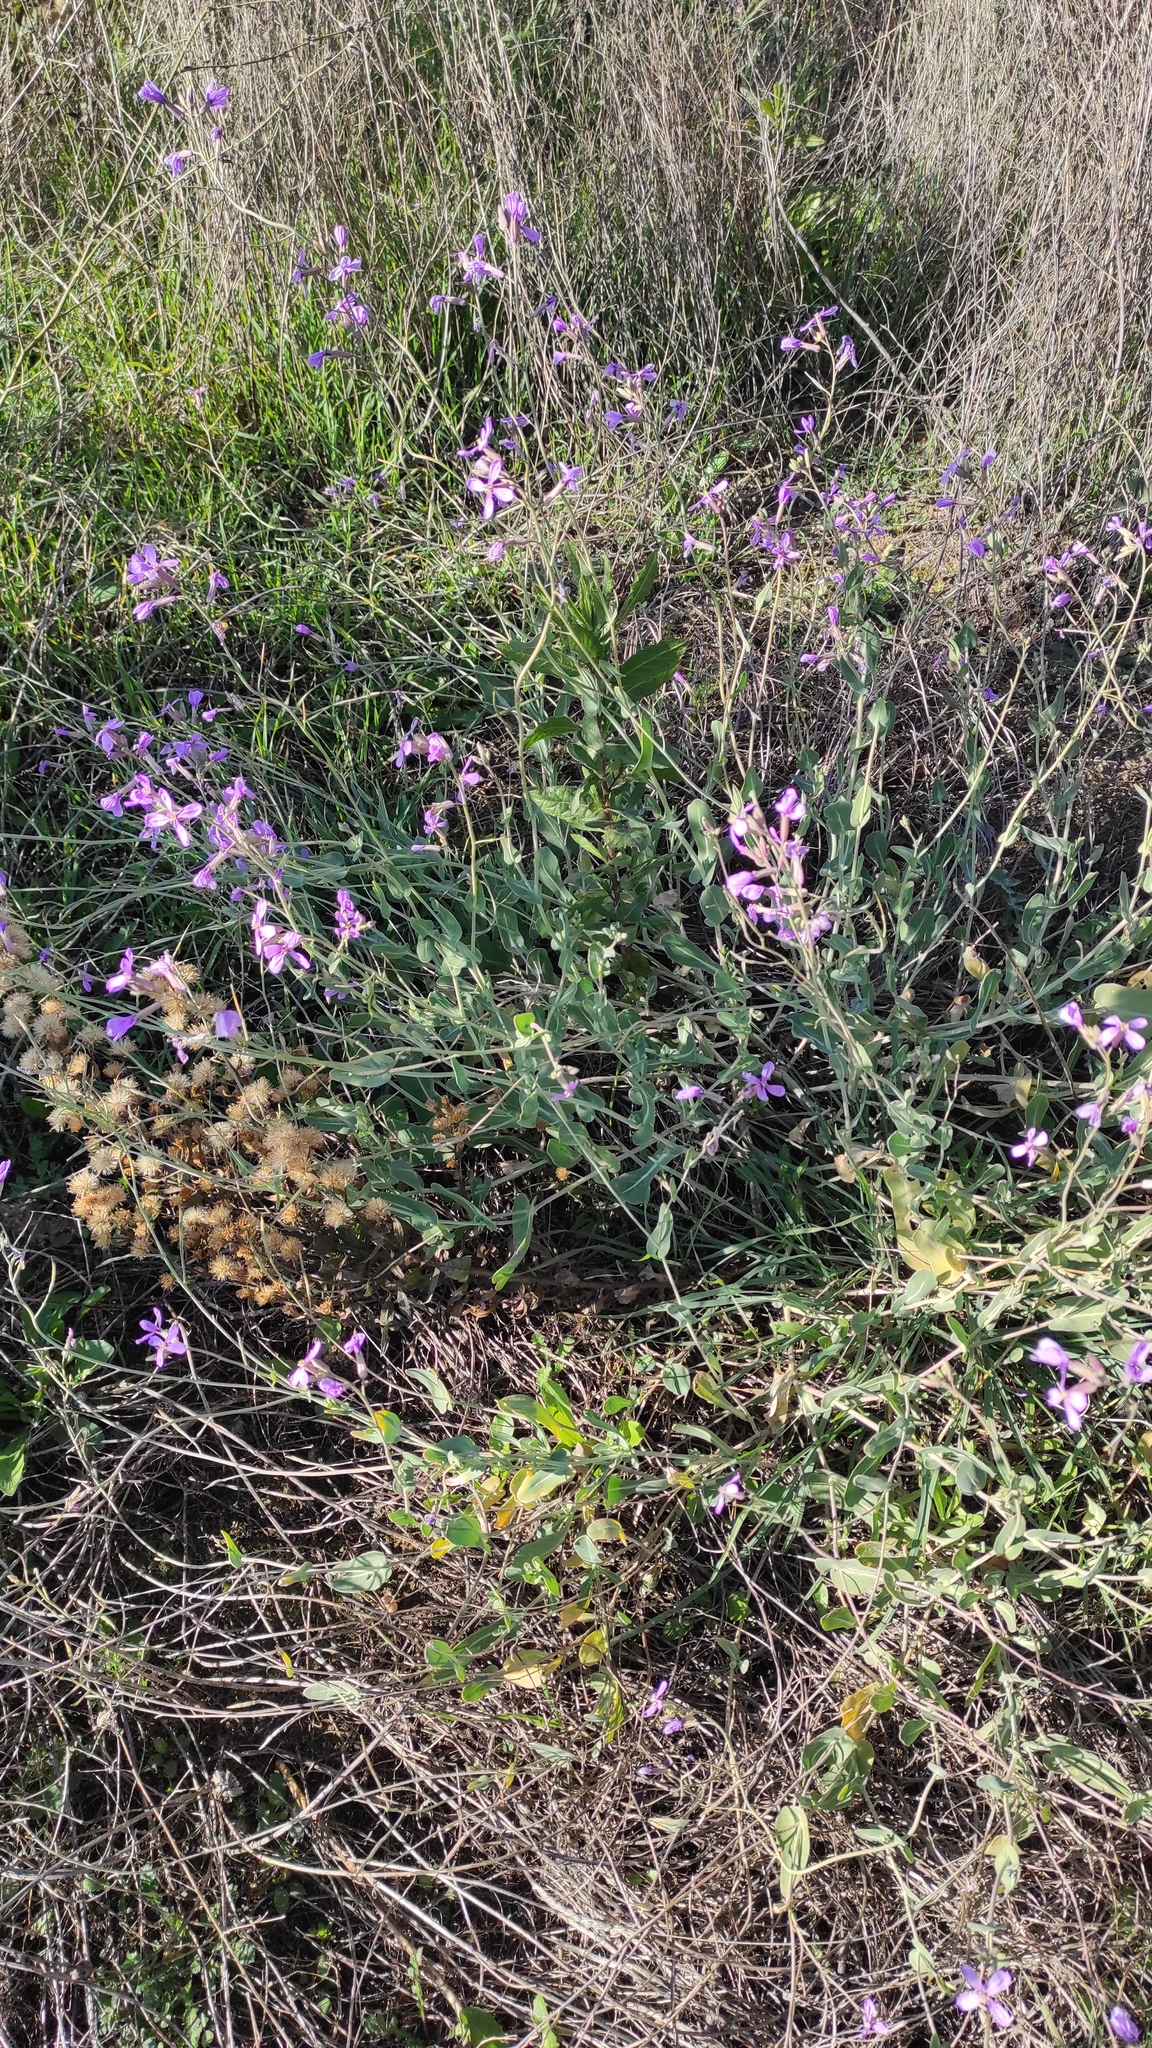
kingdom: Plantae
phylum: Tracheophyta
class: Magnoliopsida
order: Brassicales
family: Brassicaceae
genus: Moricandia
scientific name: Moricandia arvensis
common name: Purple mistress
